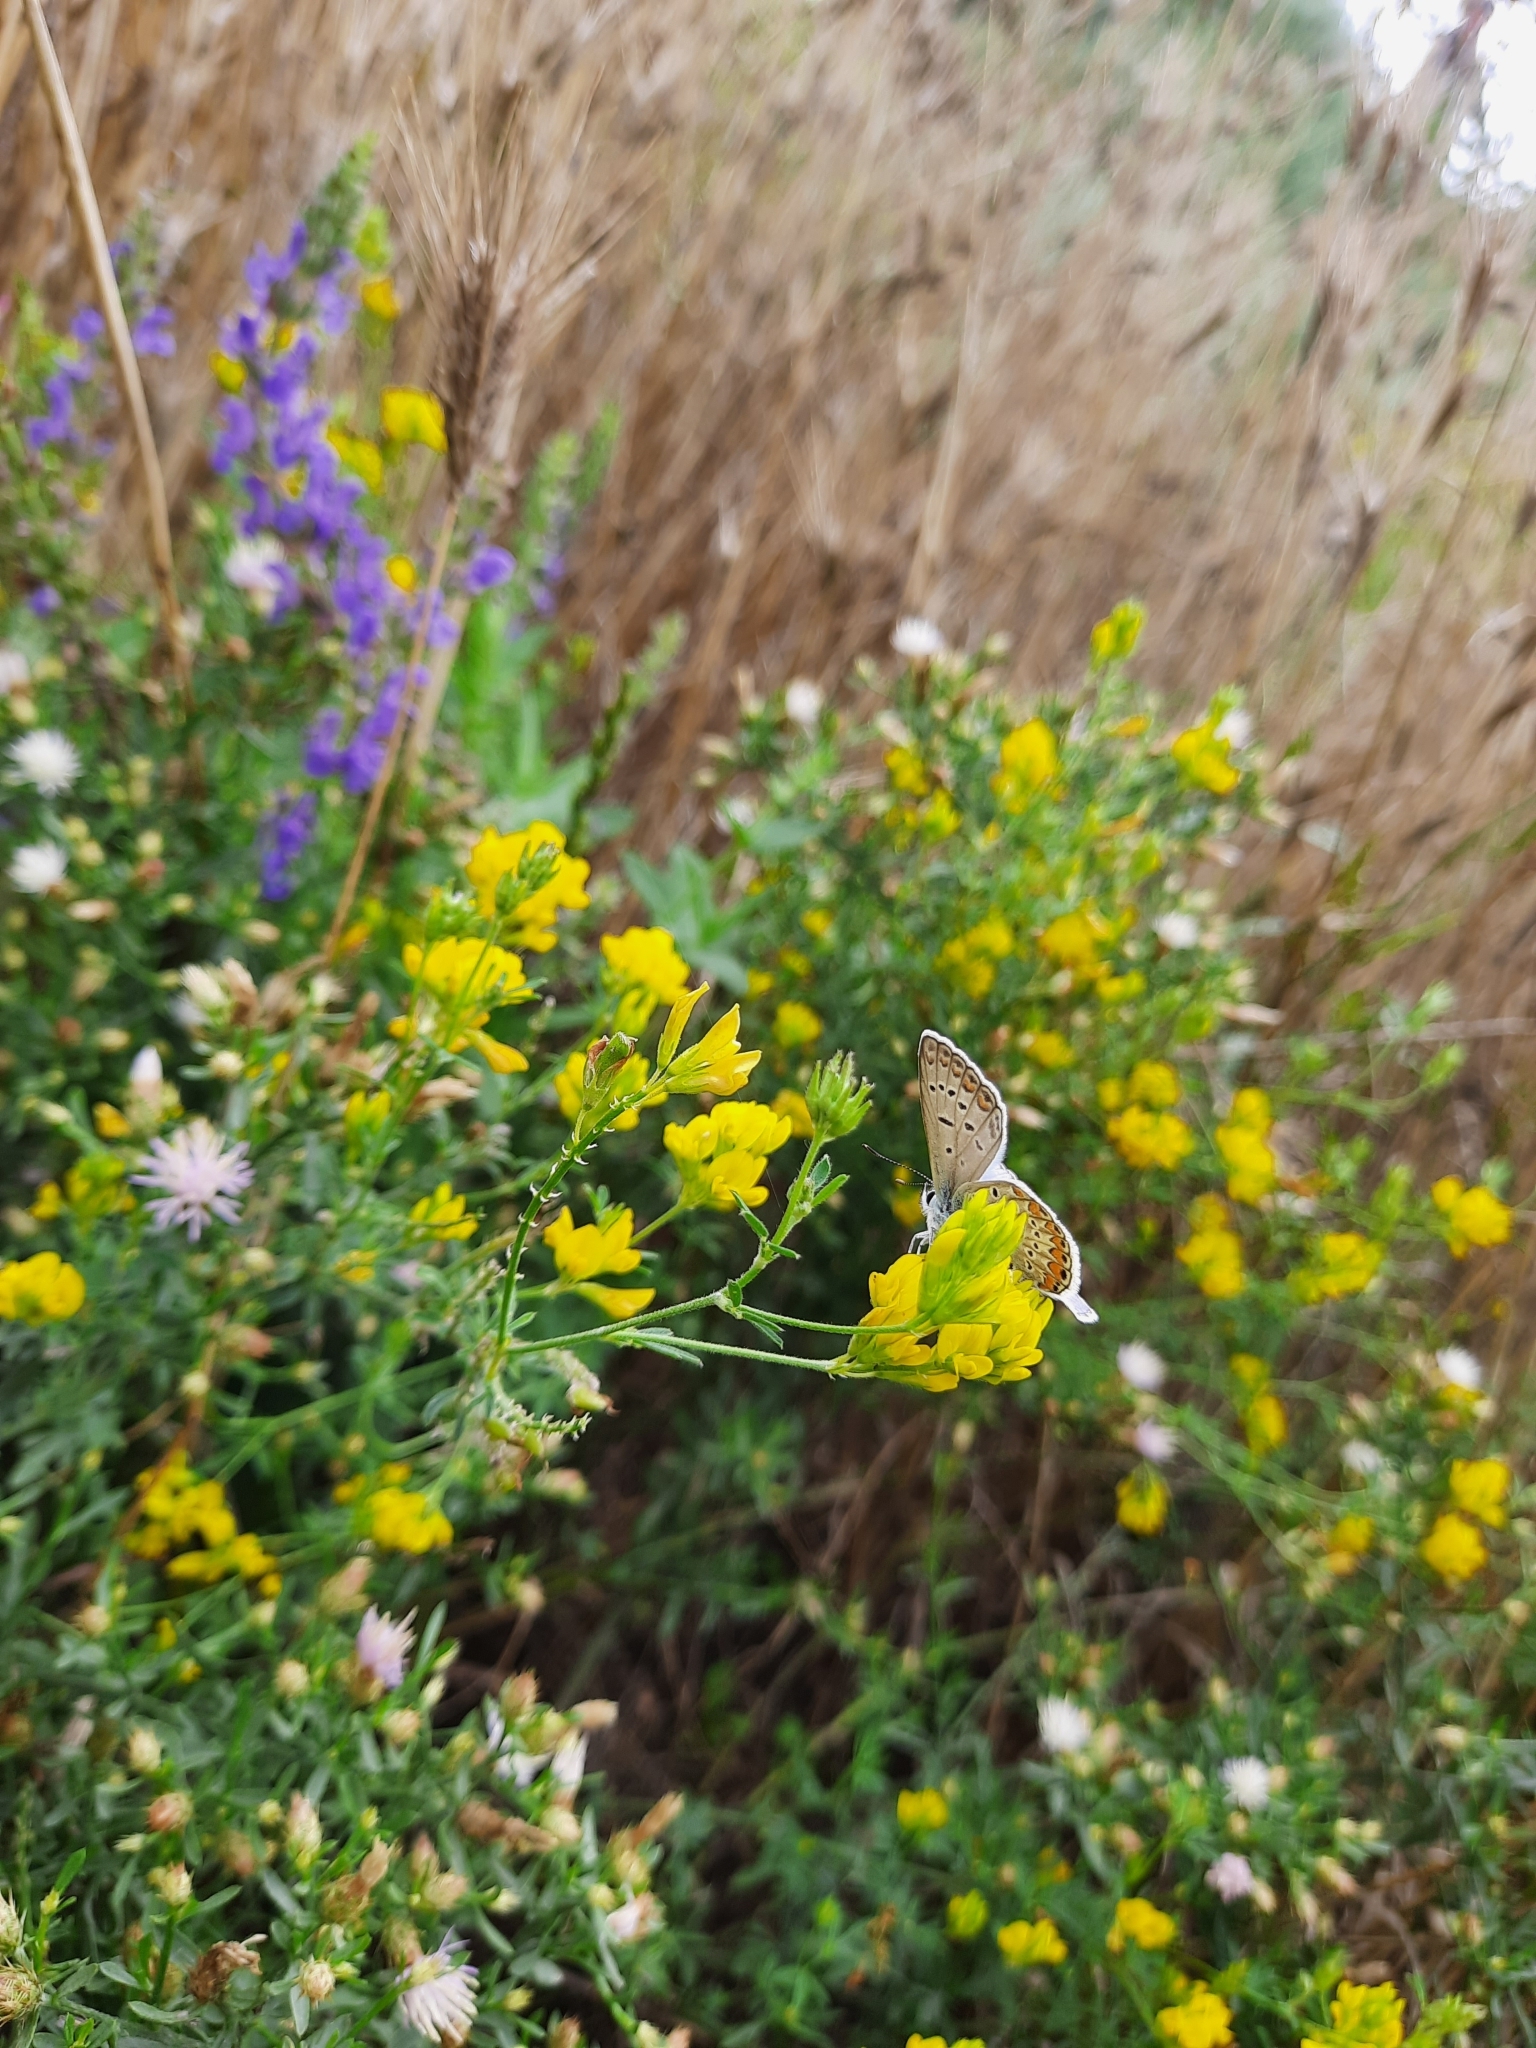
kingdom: Animalia
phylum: Arthropoda
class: Insecta
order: Lepidoptera
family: Lycaenidae
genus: Polyommatus
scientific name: Polyommatus icarus
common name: Common blue
